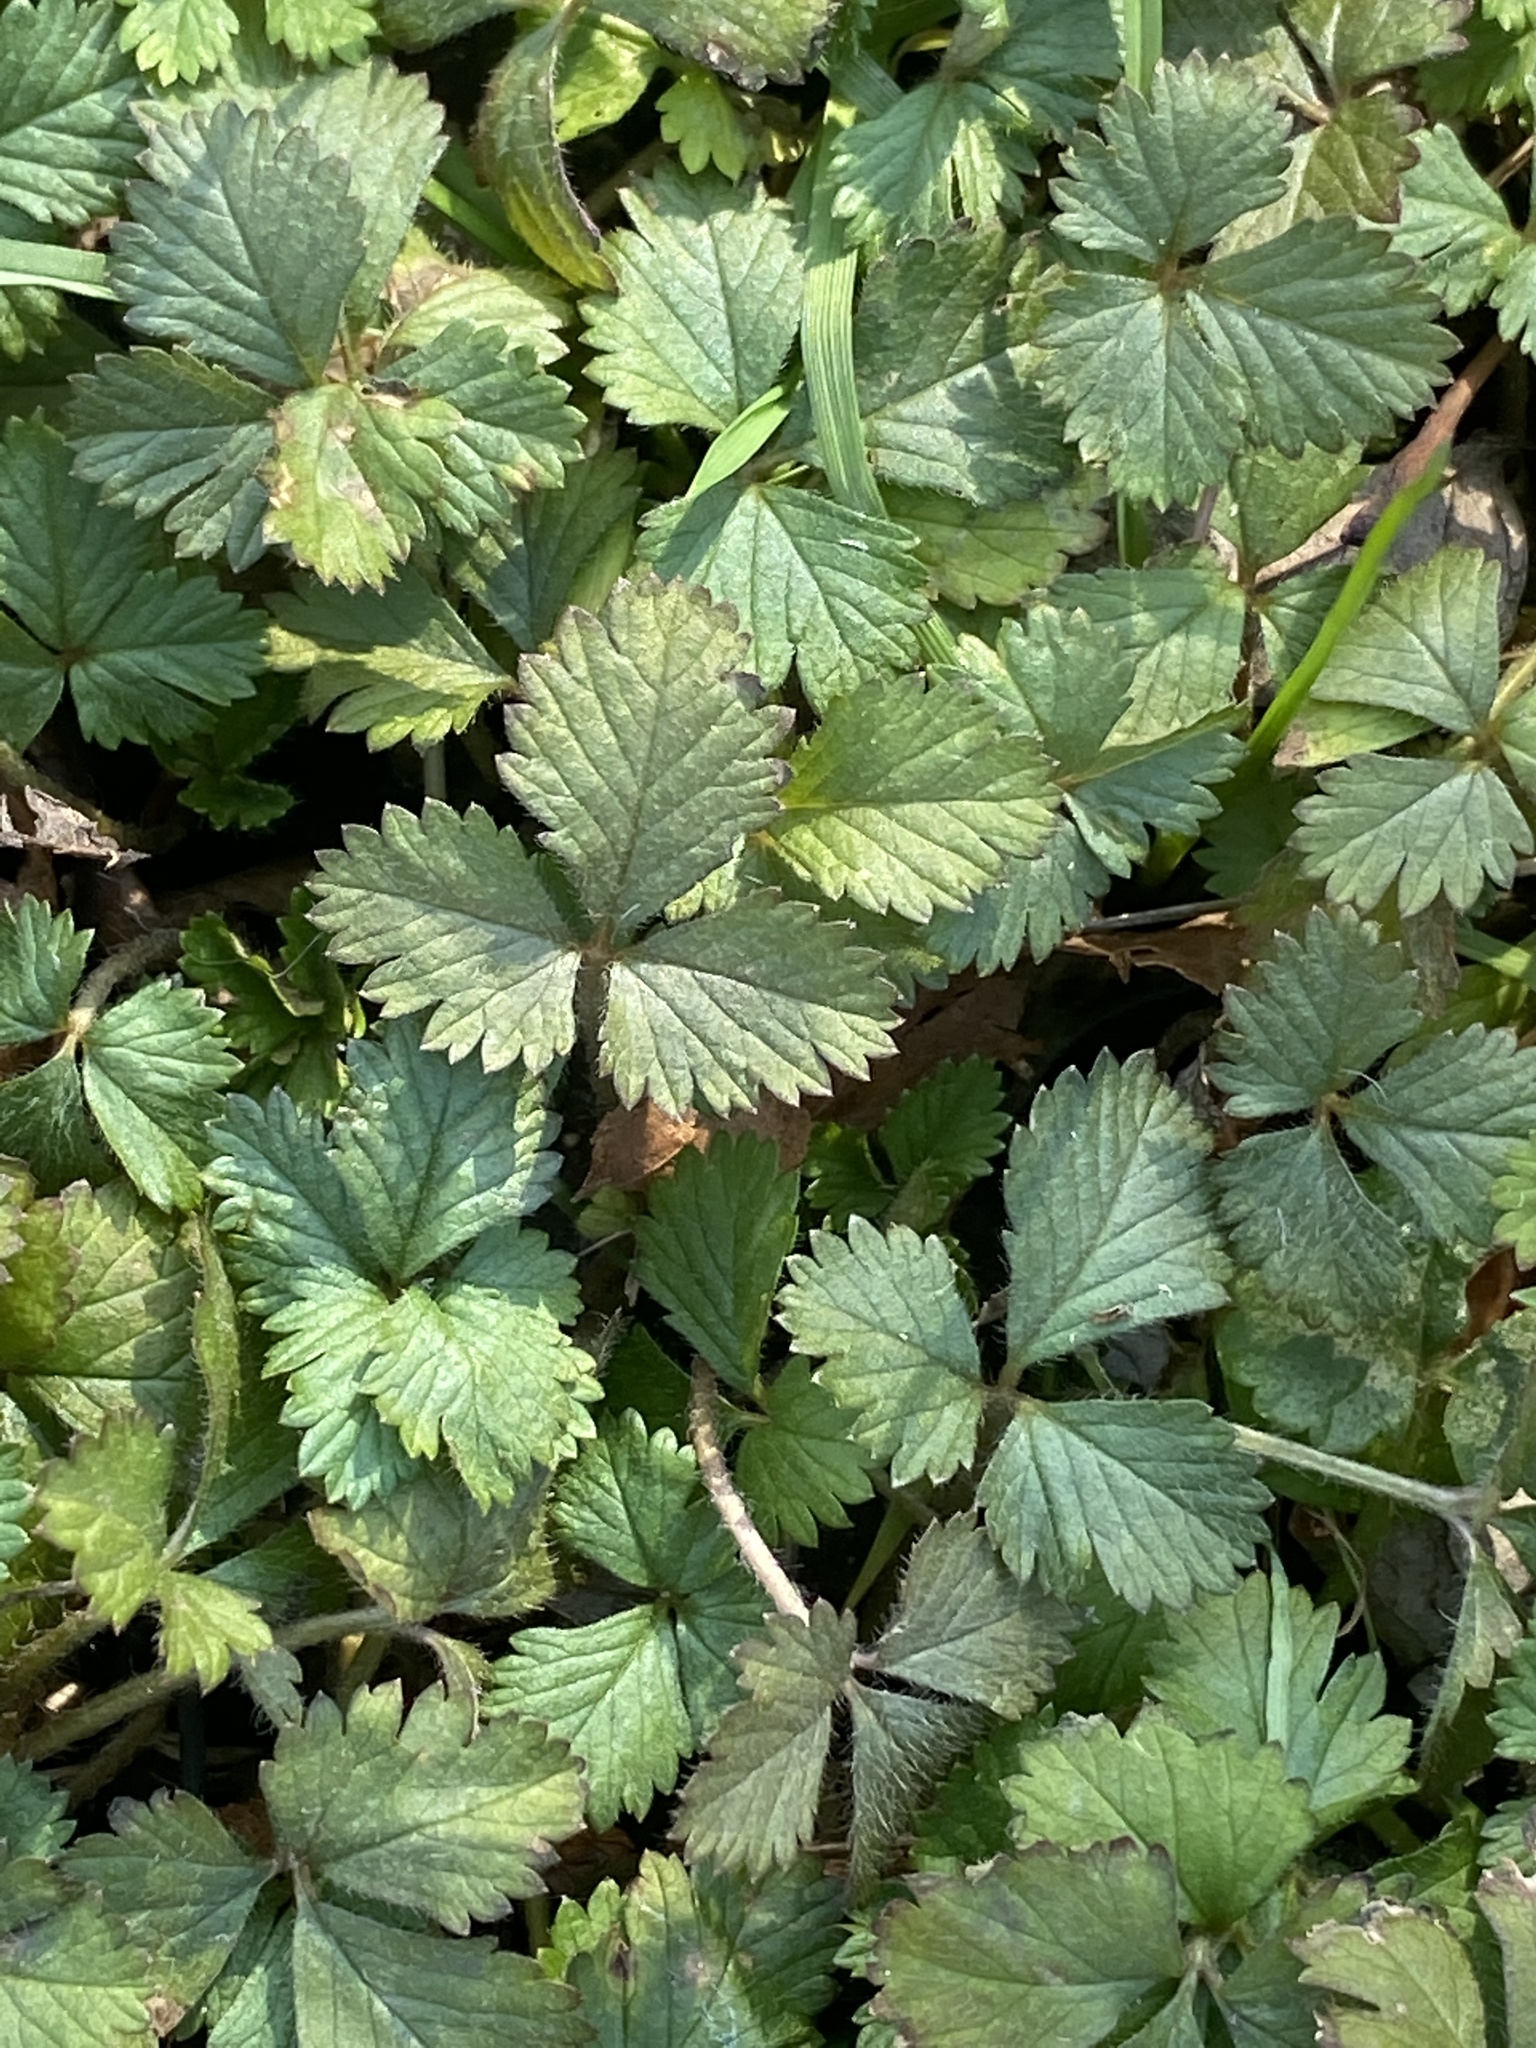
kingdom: Plantae
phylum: Tracheophyta
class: Magnoliopsida
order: Rosales
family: Rosaceae
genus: Potentilla
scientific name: Potentilla indica
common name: Yellow-flowered strawberry
